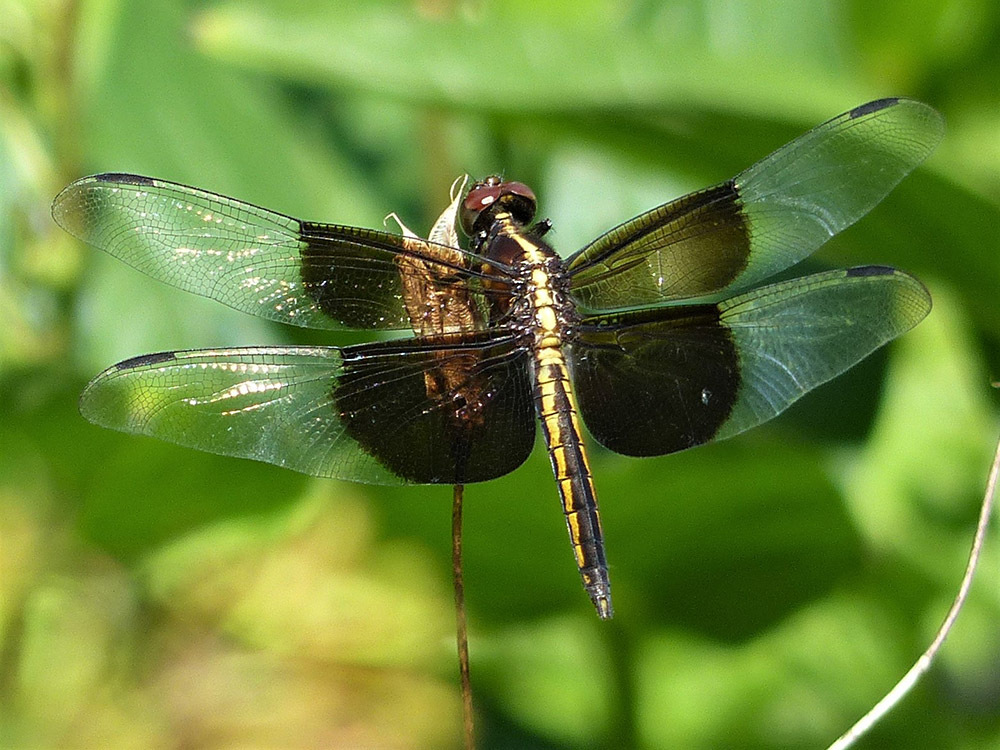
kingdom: Animalia
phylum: Arthropoda
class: Insecta
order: Odonata
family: Libellulidae
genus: Libellula
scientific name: Libellula luctuosa
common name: Widow skimmer
